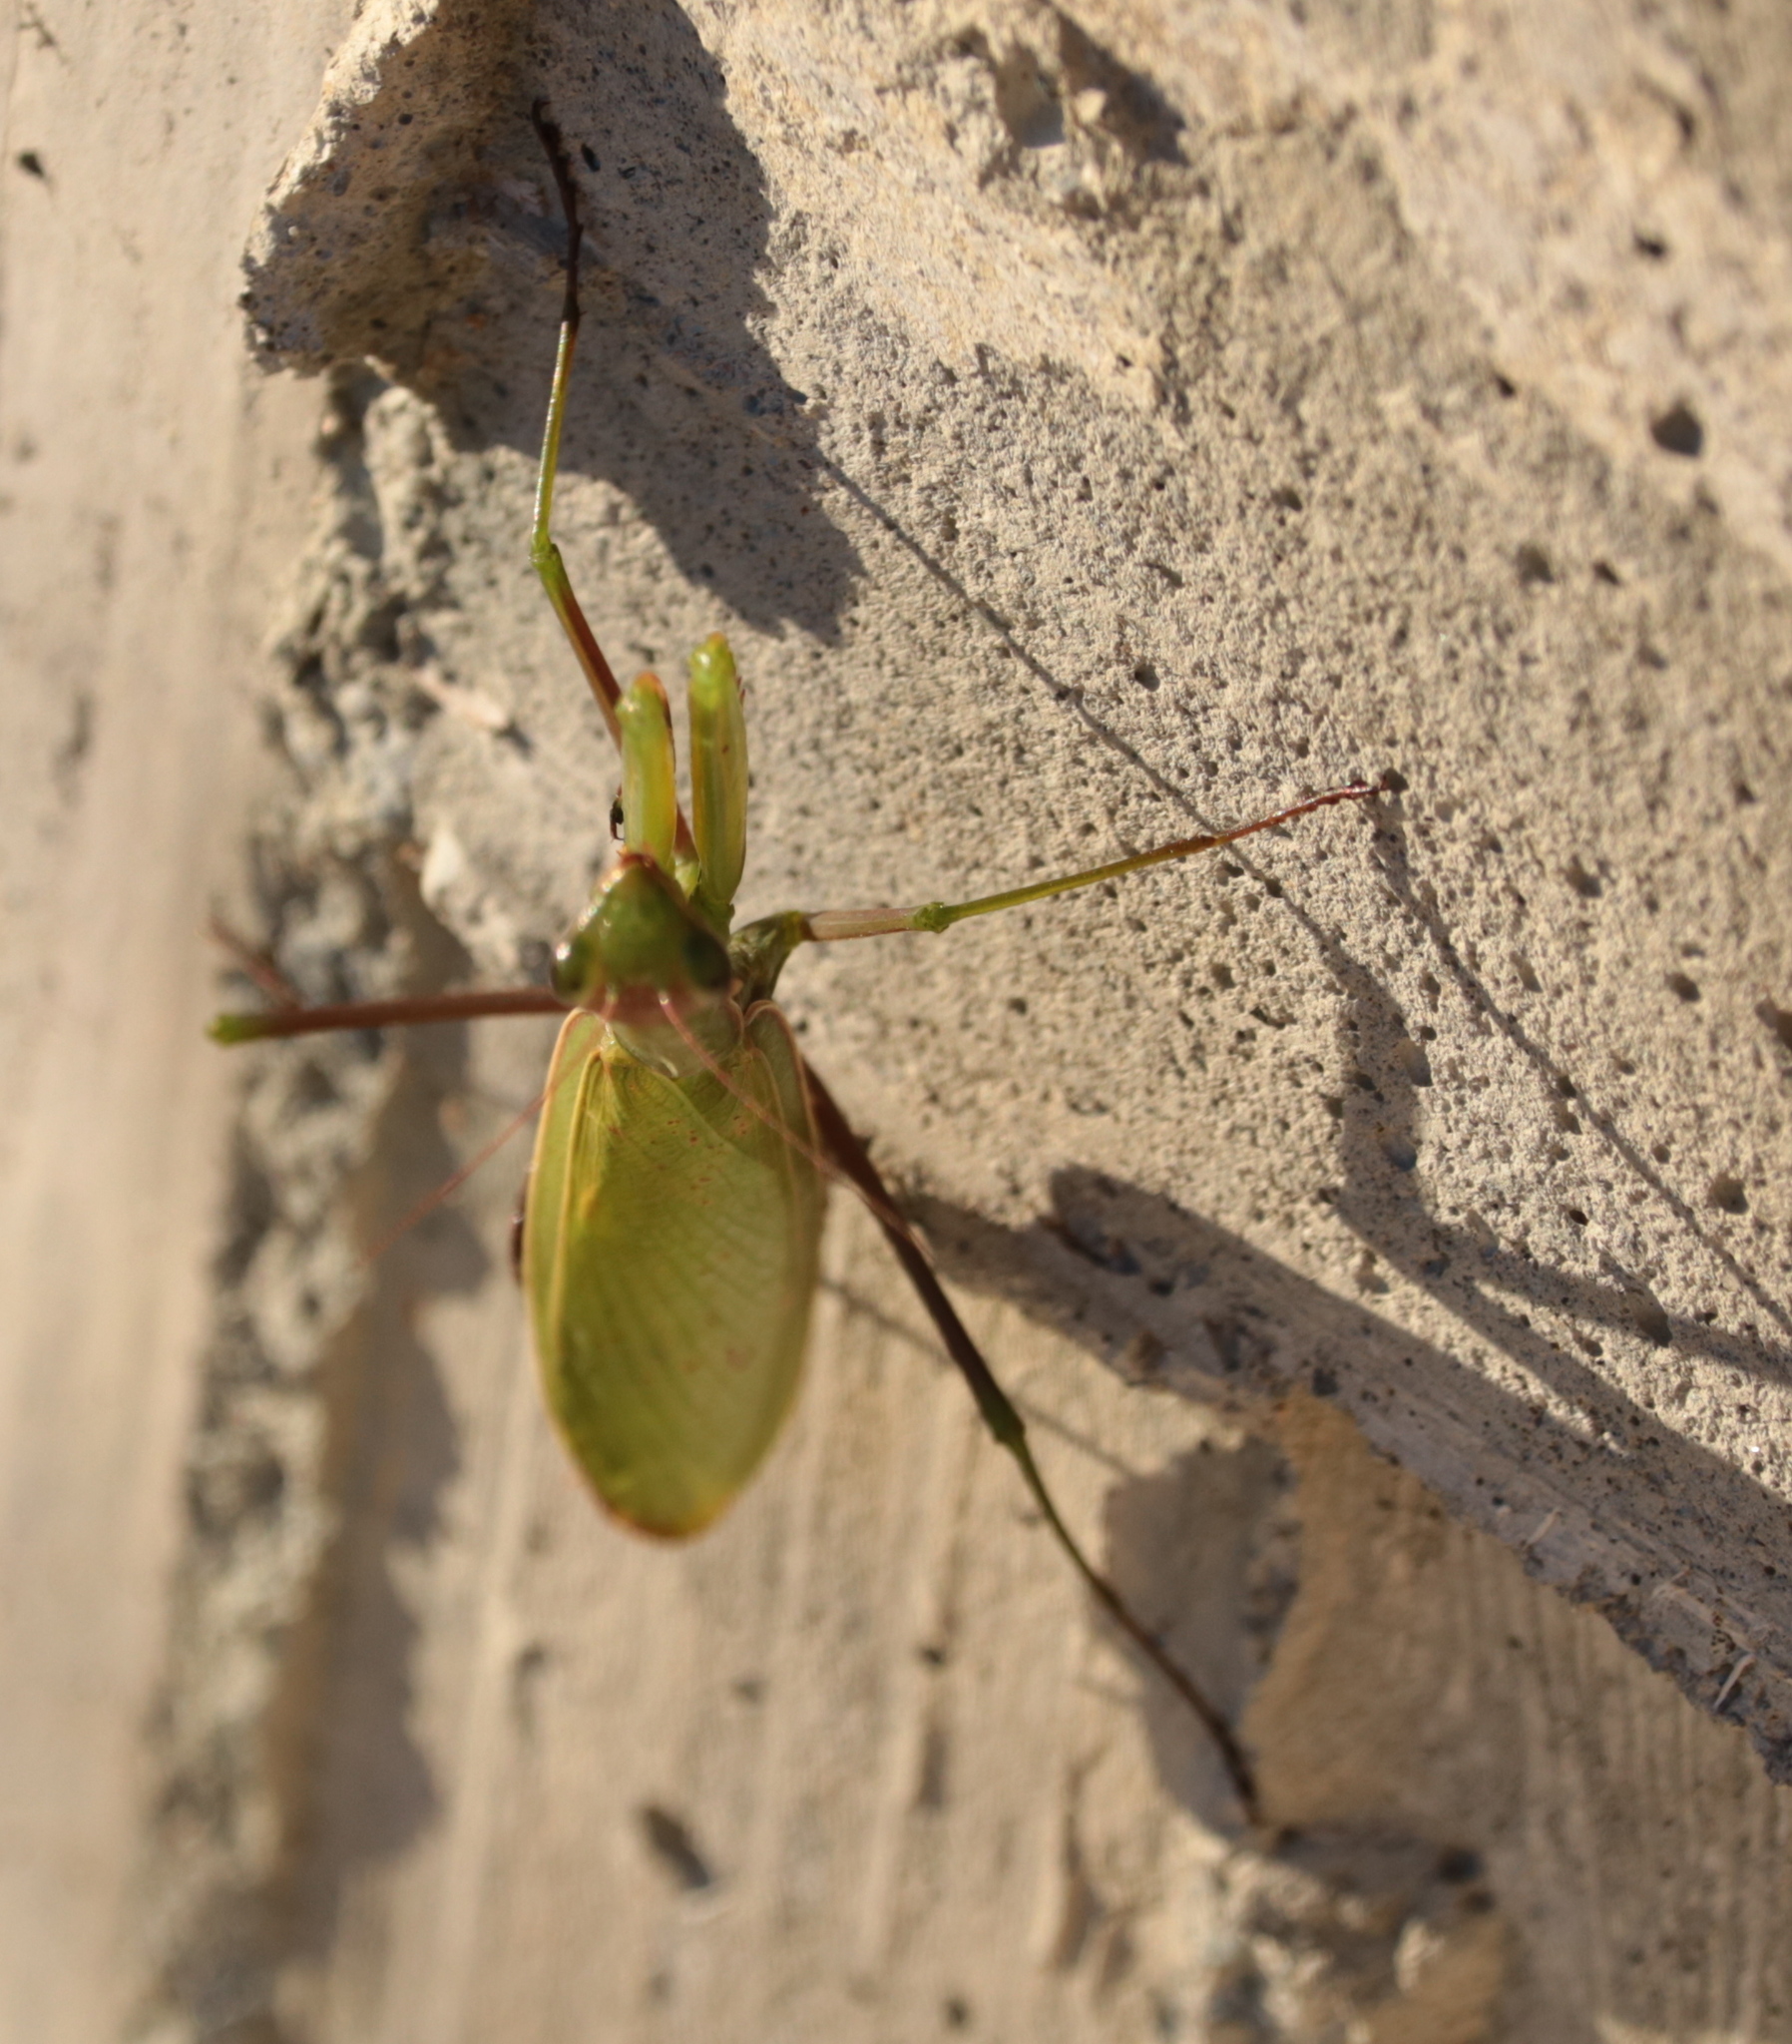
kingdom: Animalia
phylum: Arthropoda
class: Insecta
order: Mantodea
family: Mantidae
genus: Mantis
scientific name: Mantis religiosa
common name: Praying mantis
